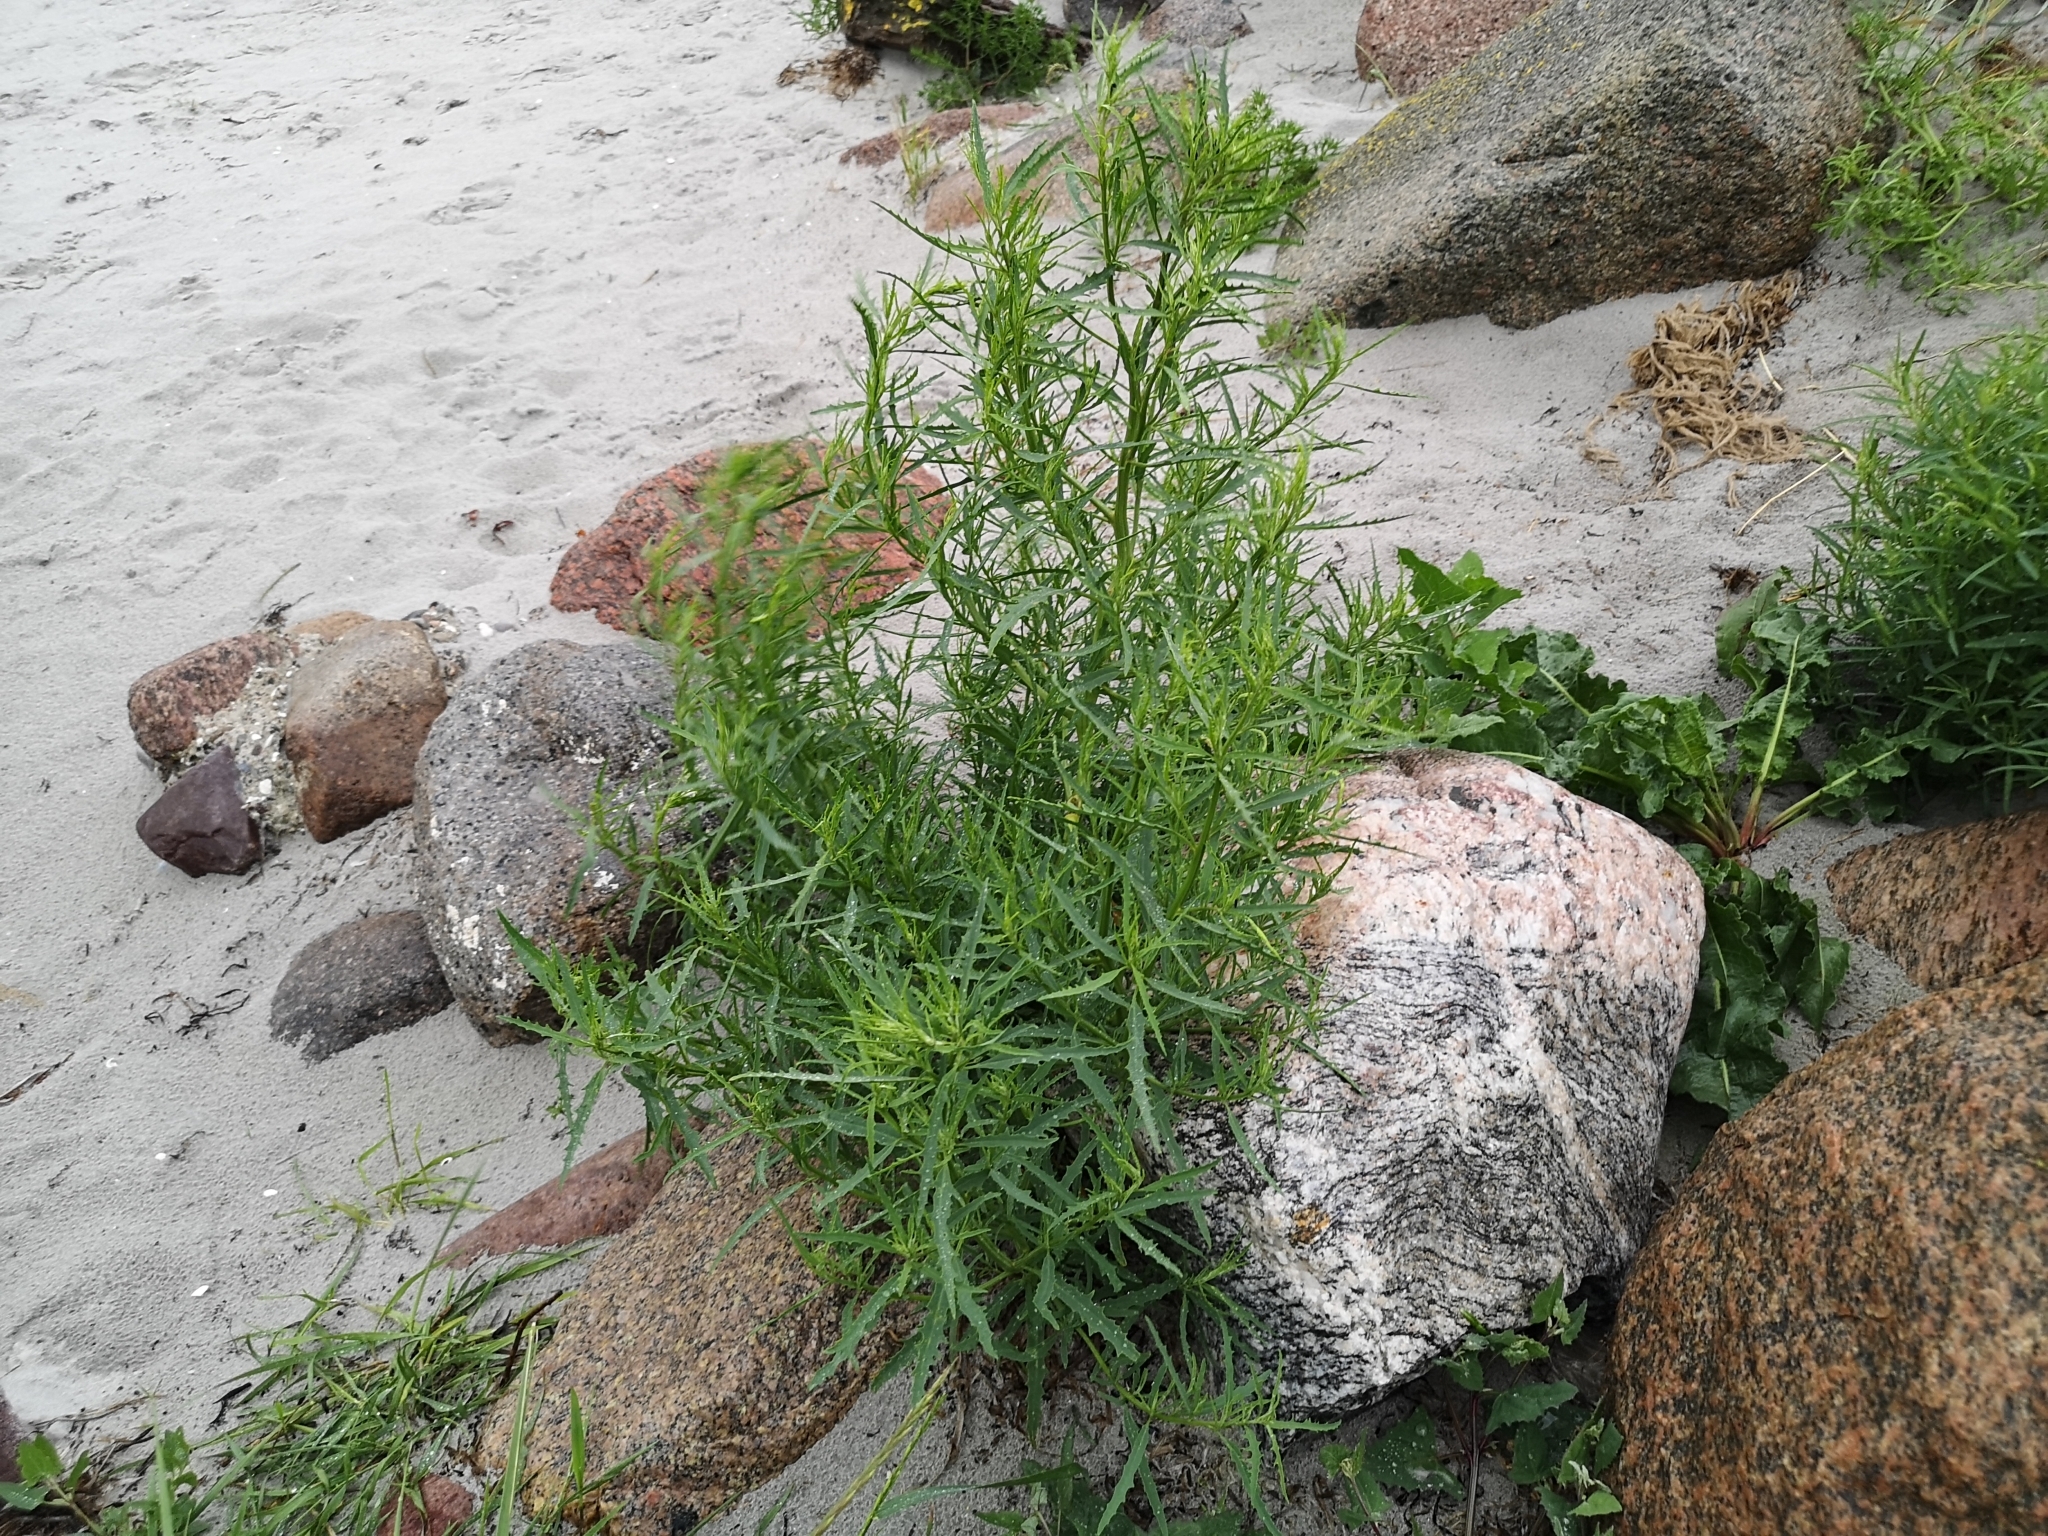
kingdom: Plantae
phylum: Tracheophyta
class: Magnoliopsida
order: Caryophyllales
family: Amaranthaceae
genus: Atriplex
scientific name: Atriplex littoralis
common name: Grass-leaved orache
